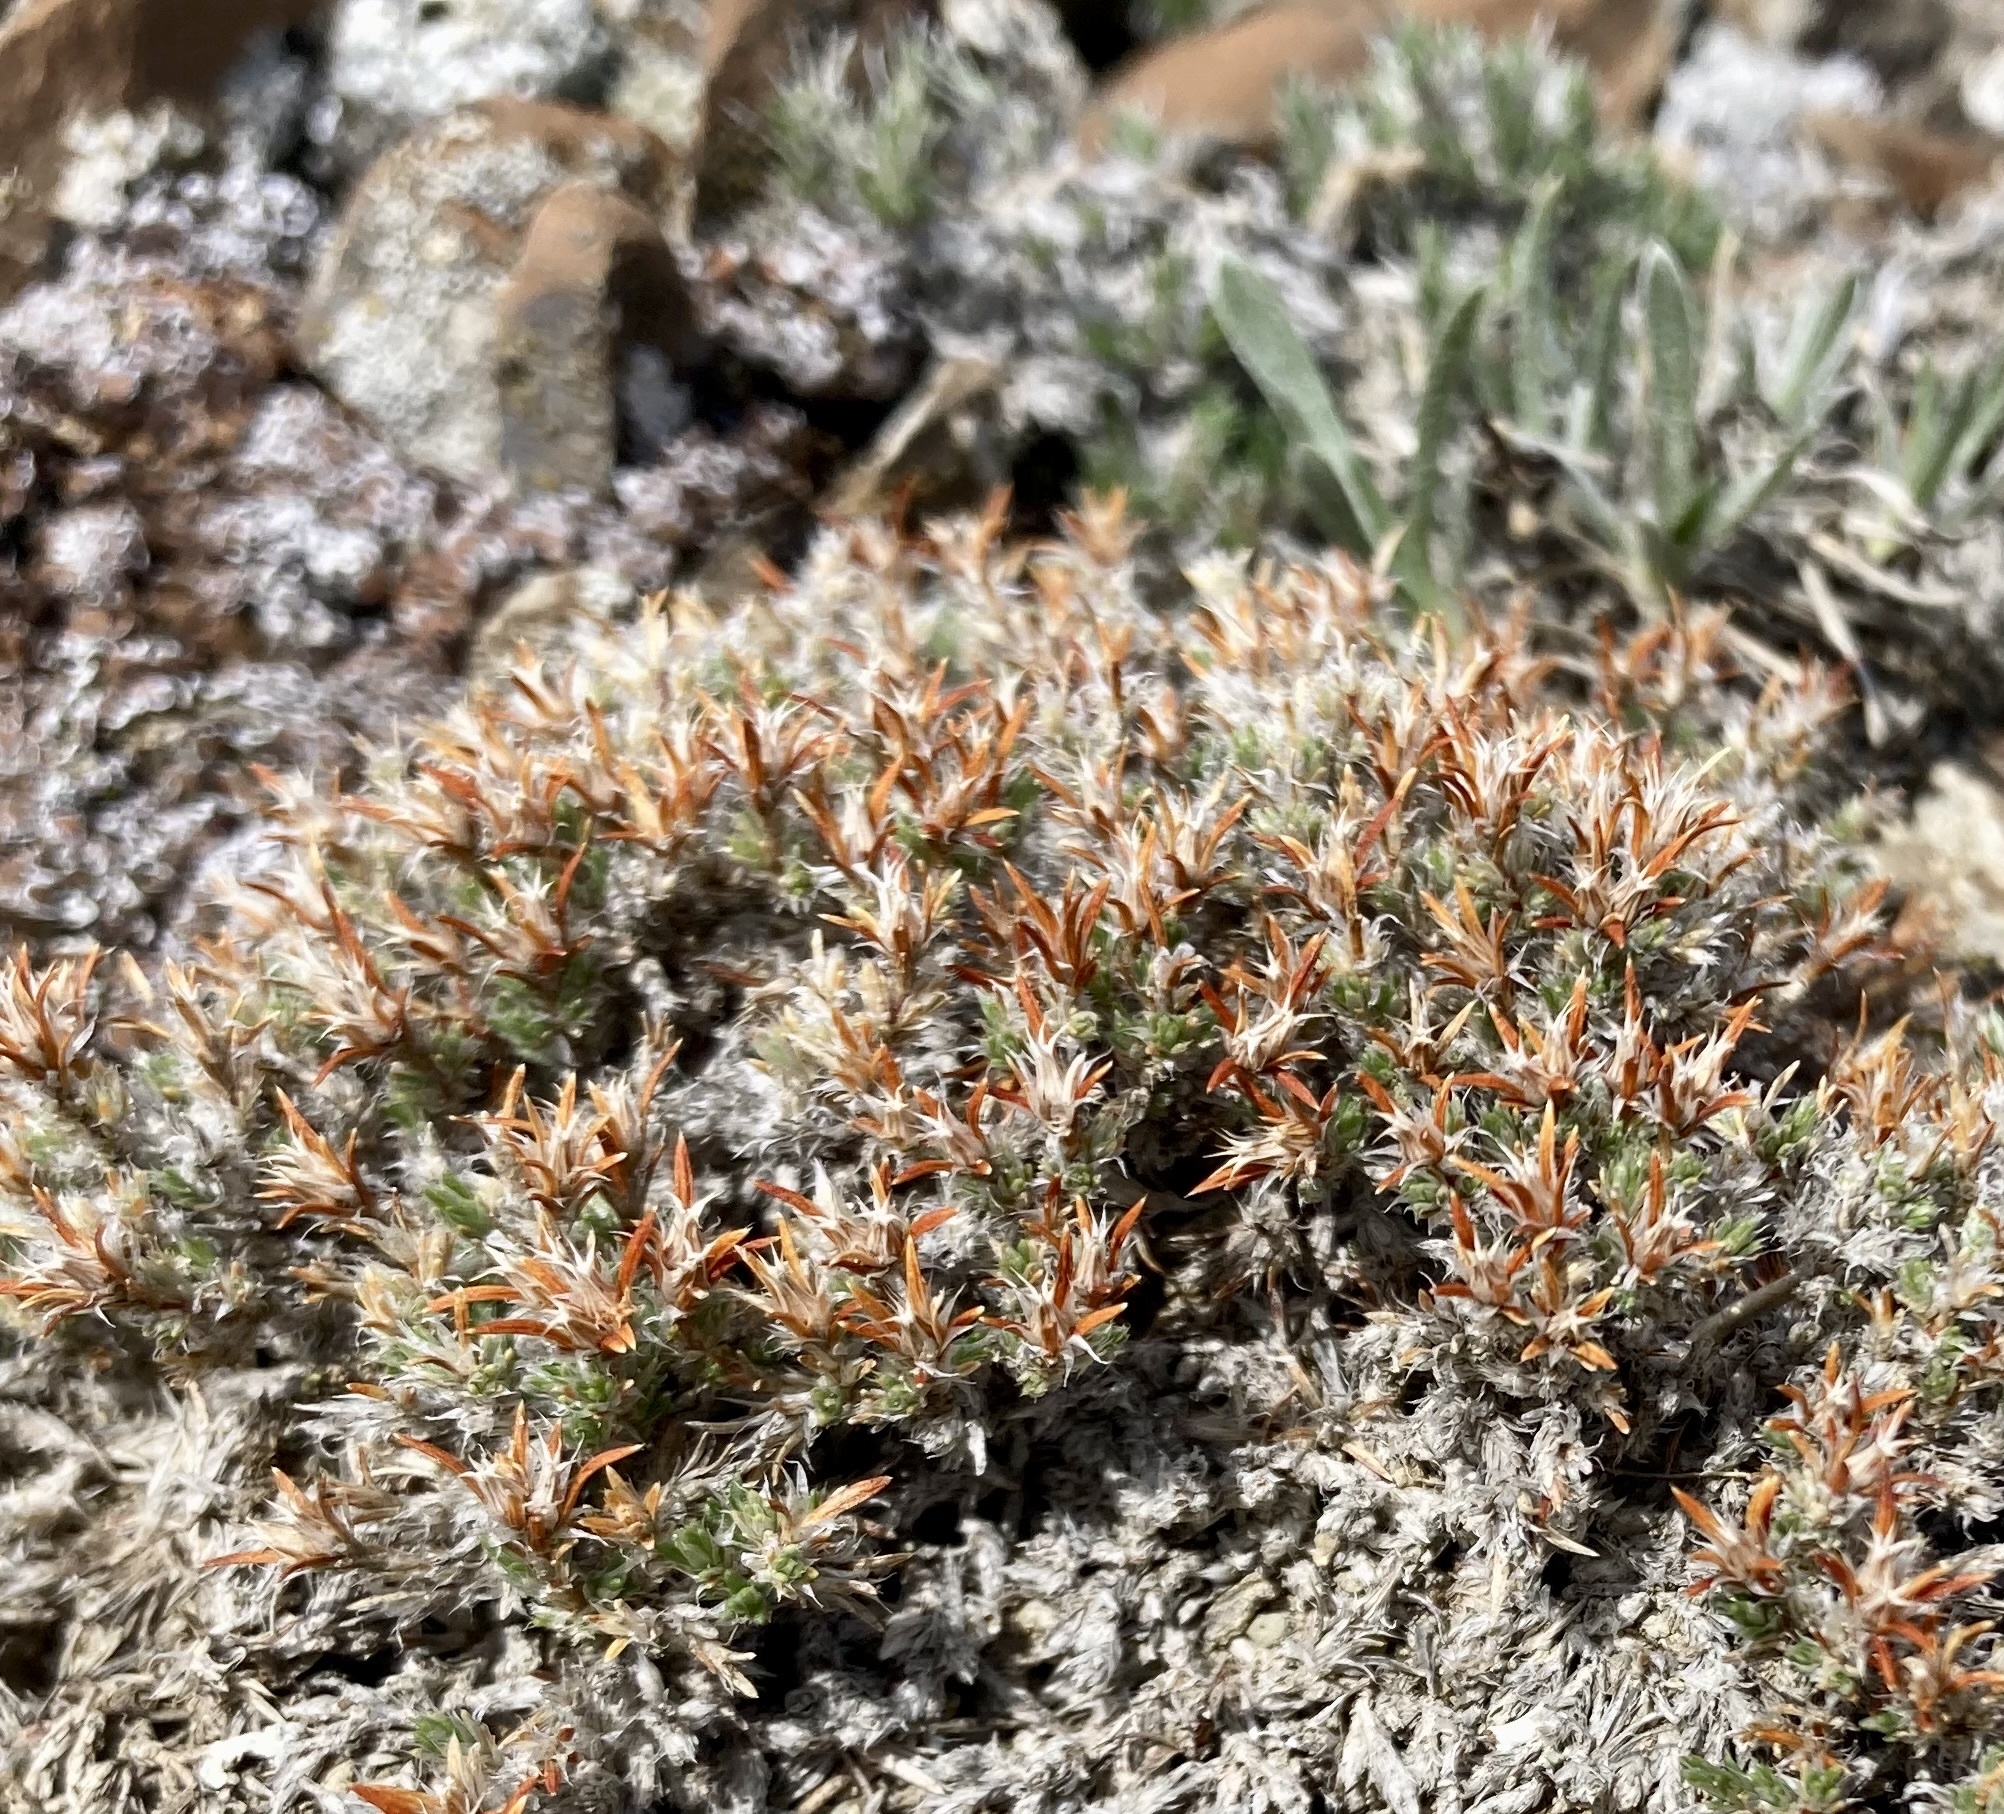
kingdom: Plantae
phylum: Tracheophyta
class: Magnoliopsida
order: Caryophyllales
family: Caryophyllaceae
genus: Paronychia
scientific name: Paronychia sessiliflora
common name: Creeping nailwort
